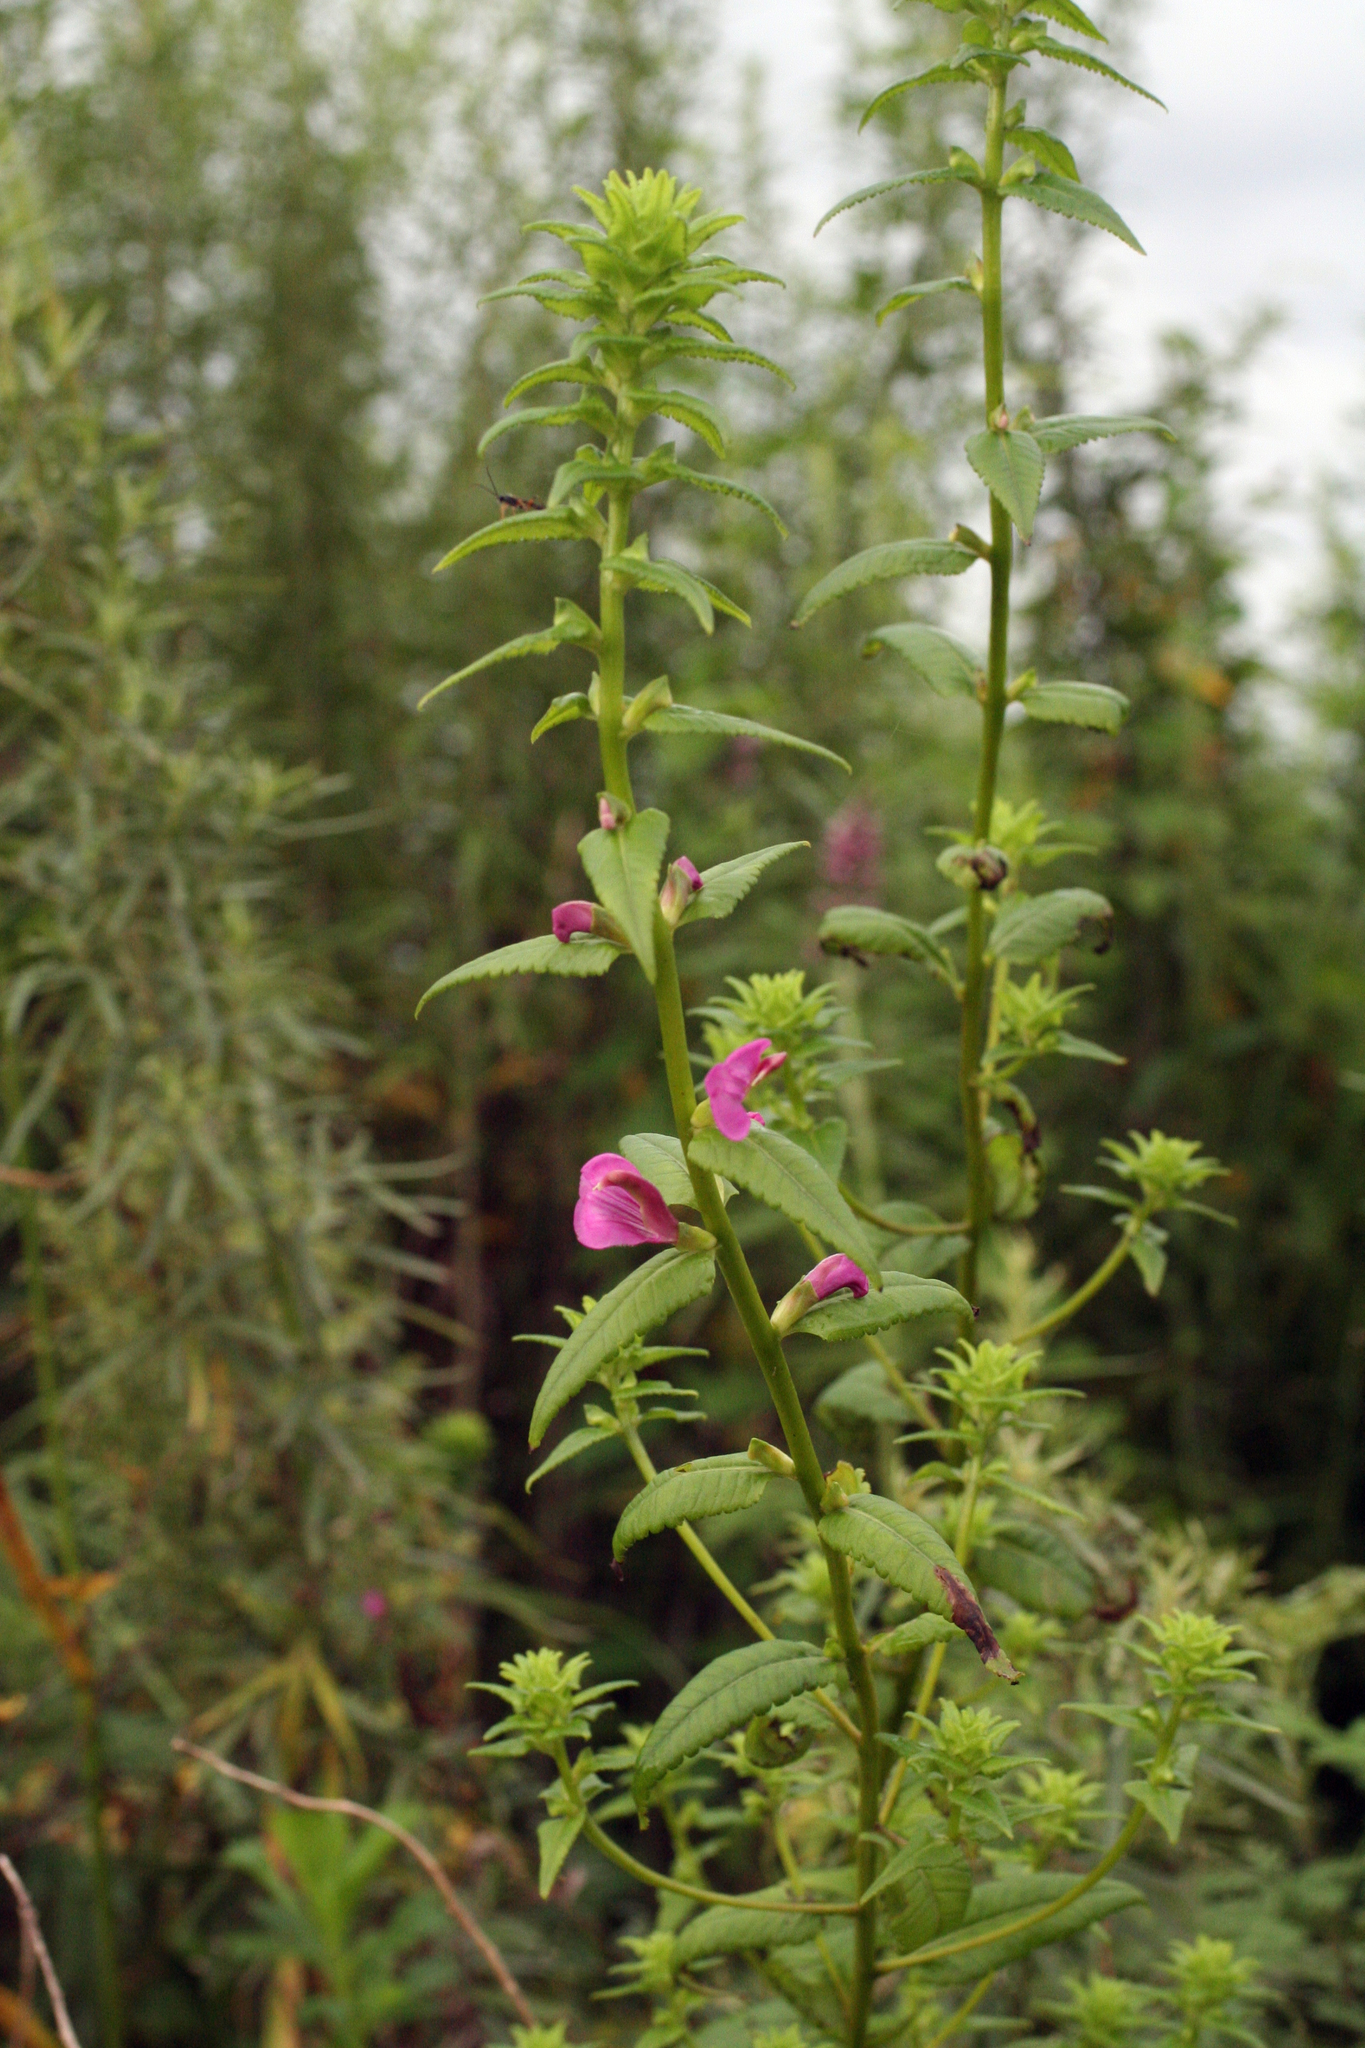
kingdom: Plantae
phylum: Tracheophyta
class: Magnoliopsida
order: Lamiales
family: Orobanchaceae
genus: Pedicularis
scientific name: Pedicularis resupinata
